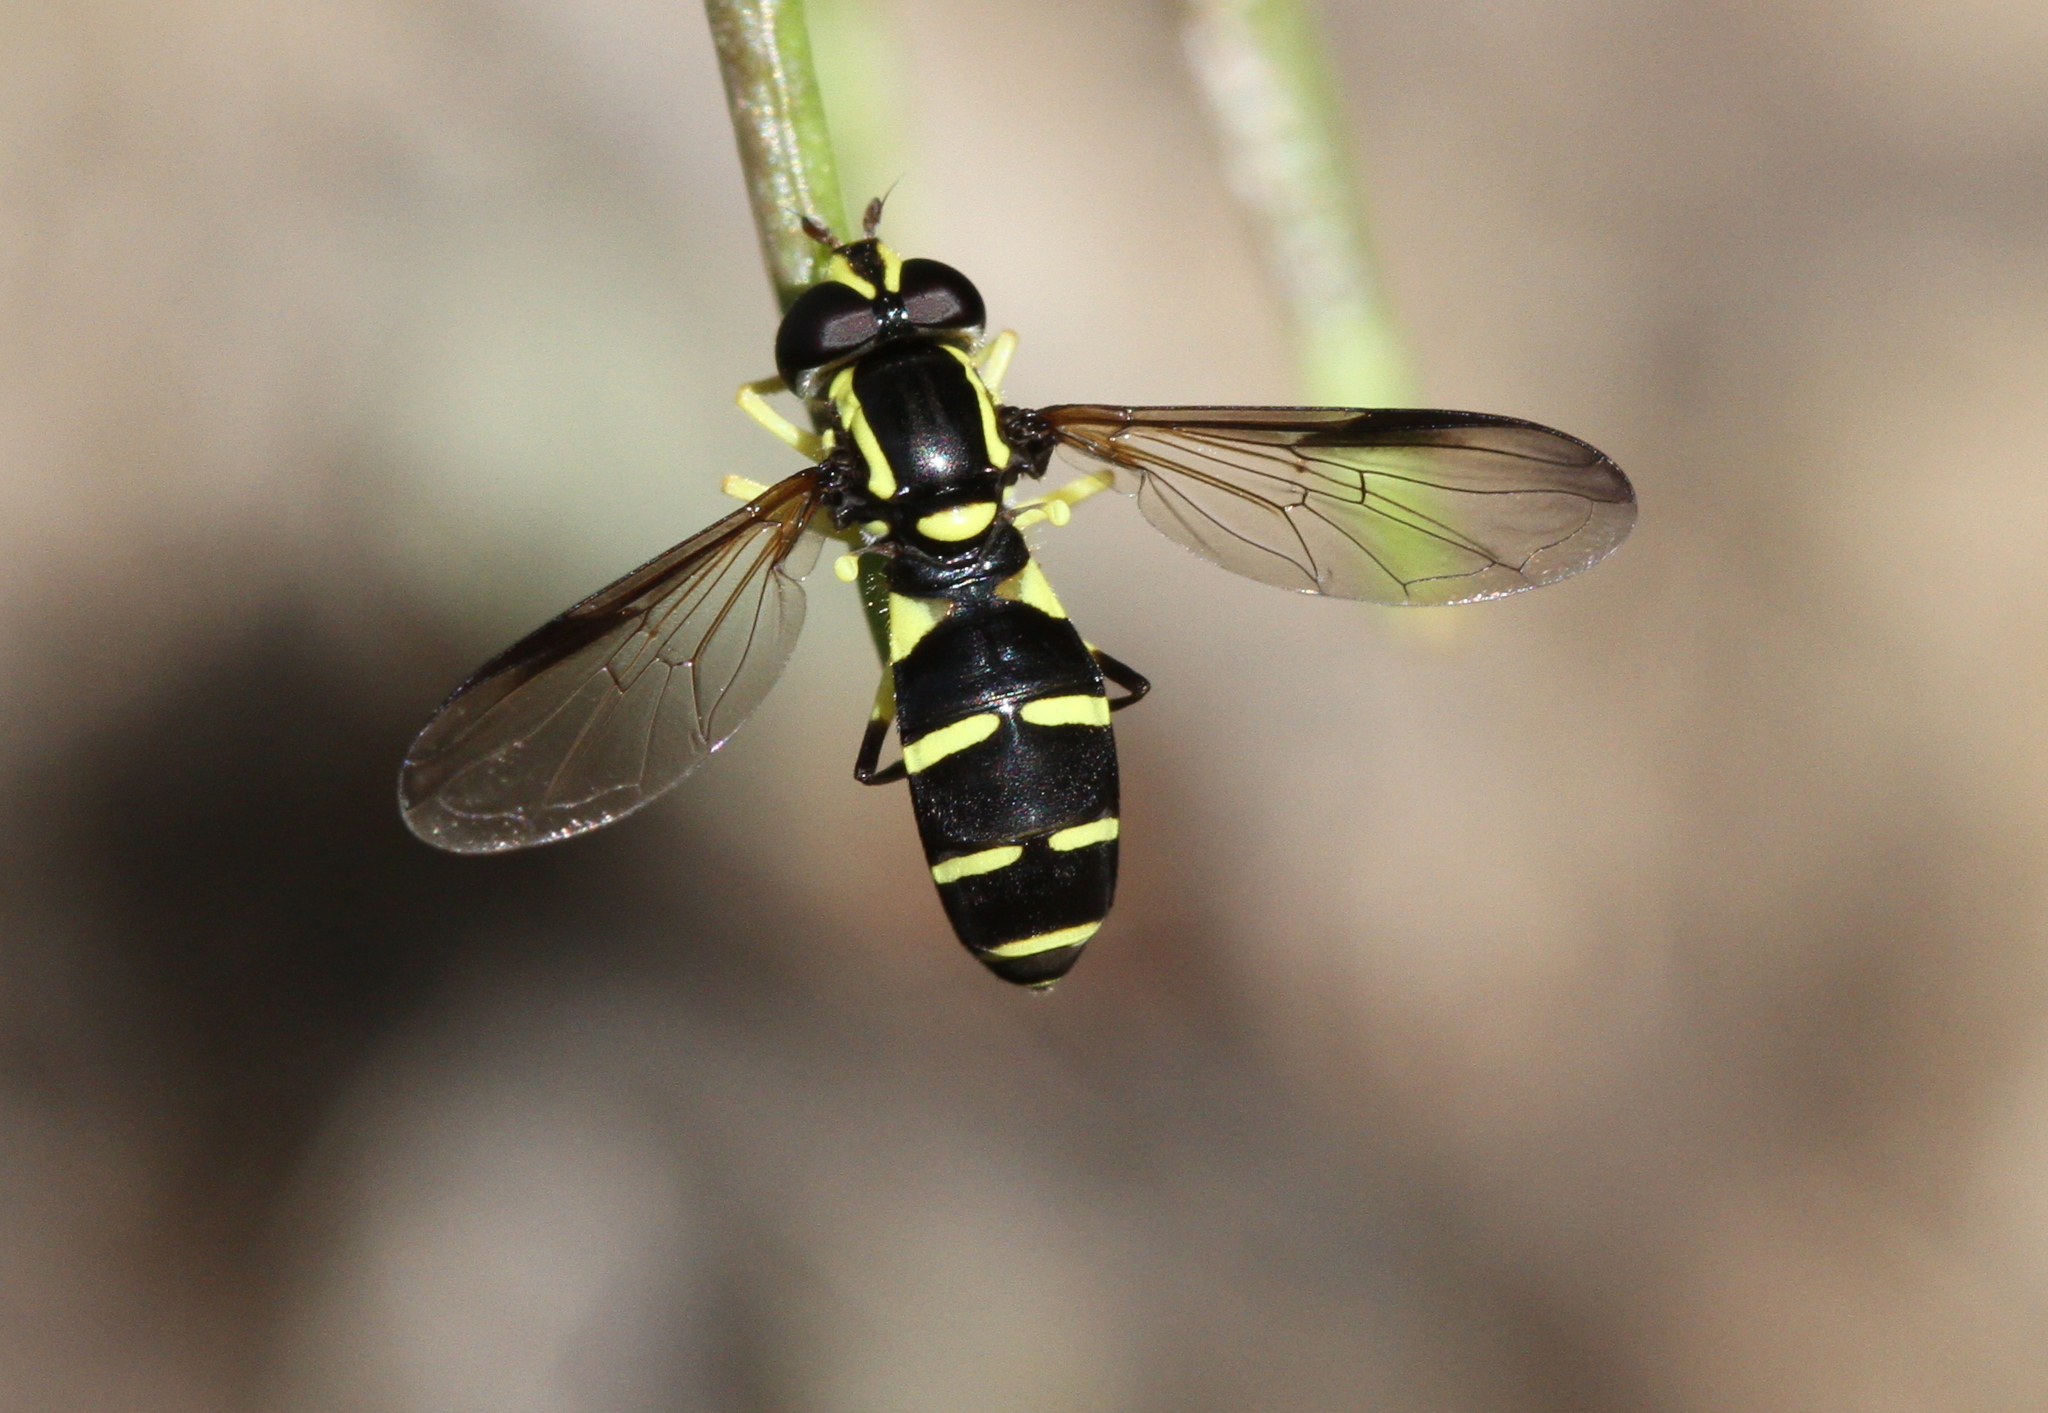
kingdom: Animalia
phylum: Arthropoda
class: Insecta
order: Diptera
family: Syrphidae
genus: Philhelius
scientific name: Philhelius dives
